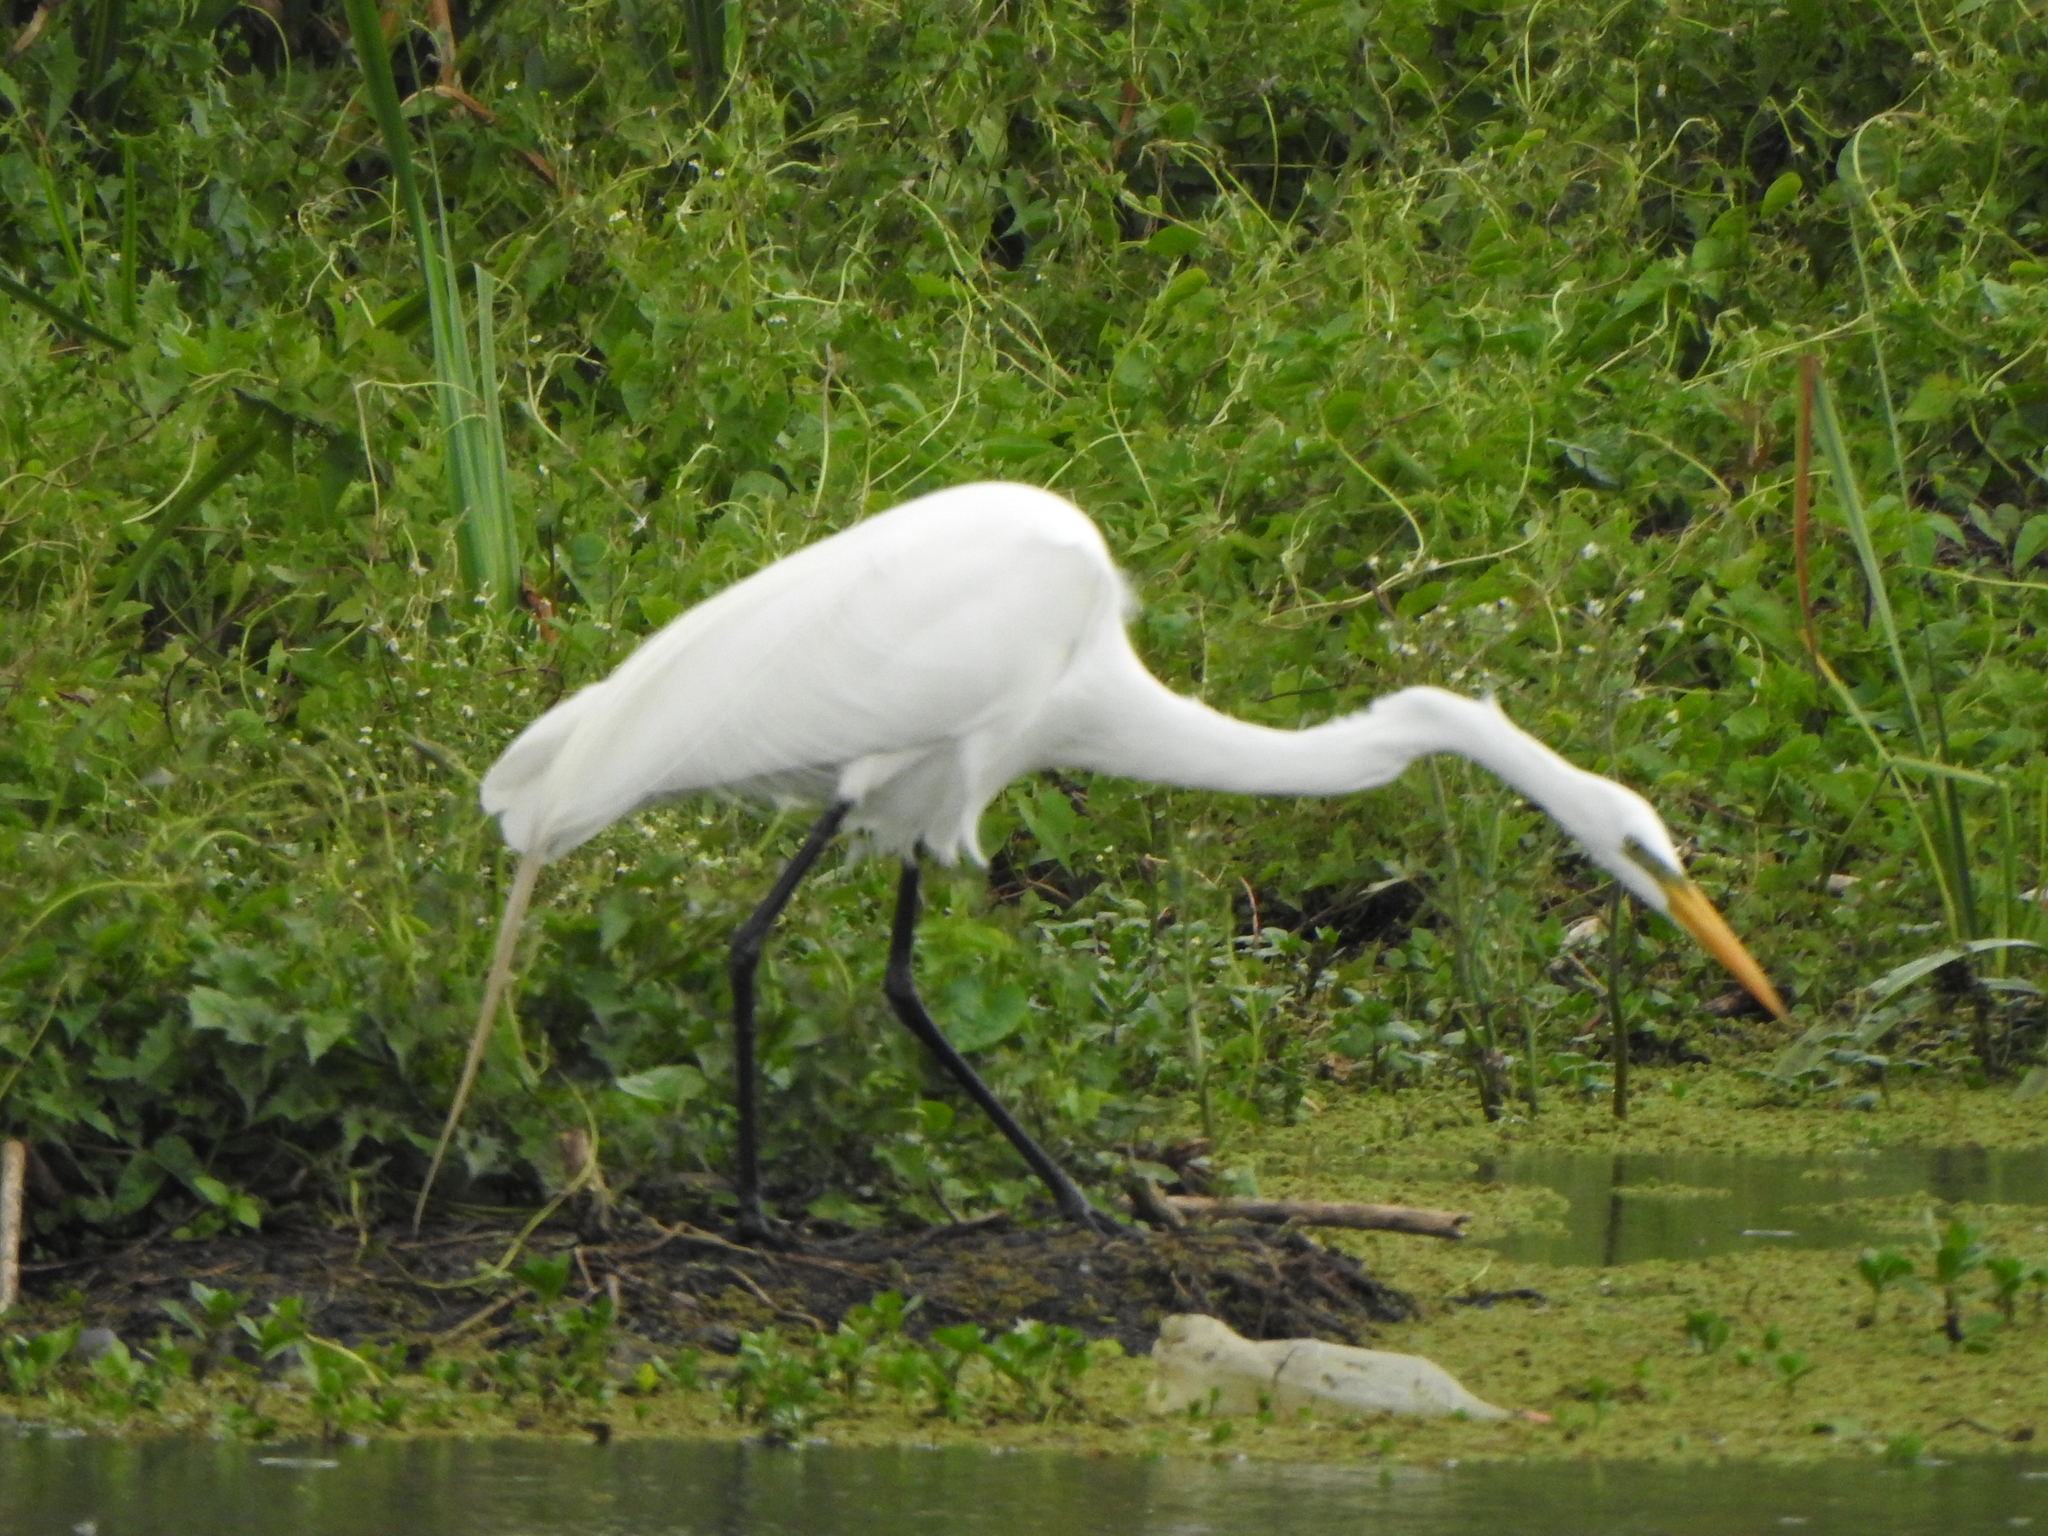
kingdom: Animalia
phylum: Chordata
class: Aves
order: Pelecaniformes
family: Ardeidae
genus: Ardea
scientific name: Ardea alba
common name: Great egret
